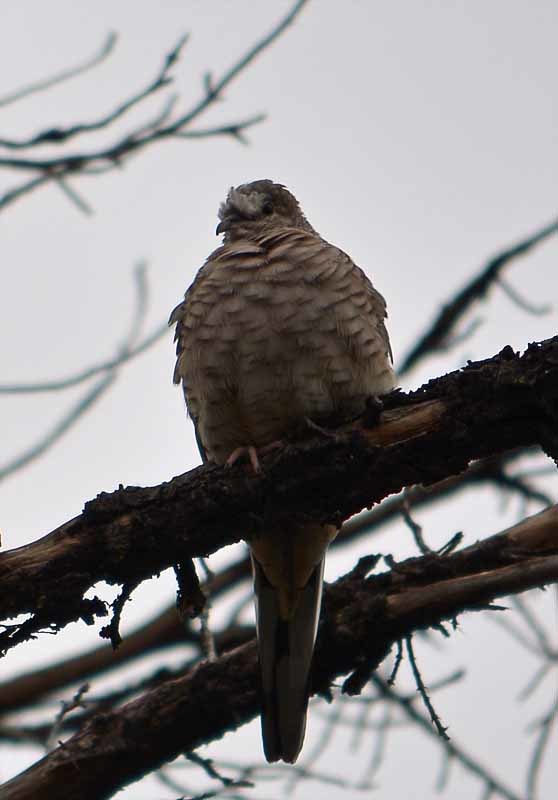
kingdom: Animalia
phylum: Chordata
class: Aves
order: Columbiformes
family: Columbidae
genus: Columbina
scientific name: Columbina inca
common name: Inca dove
